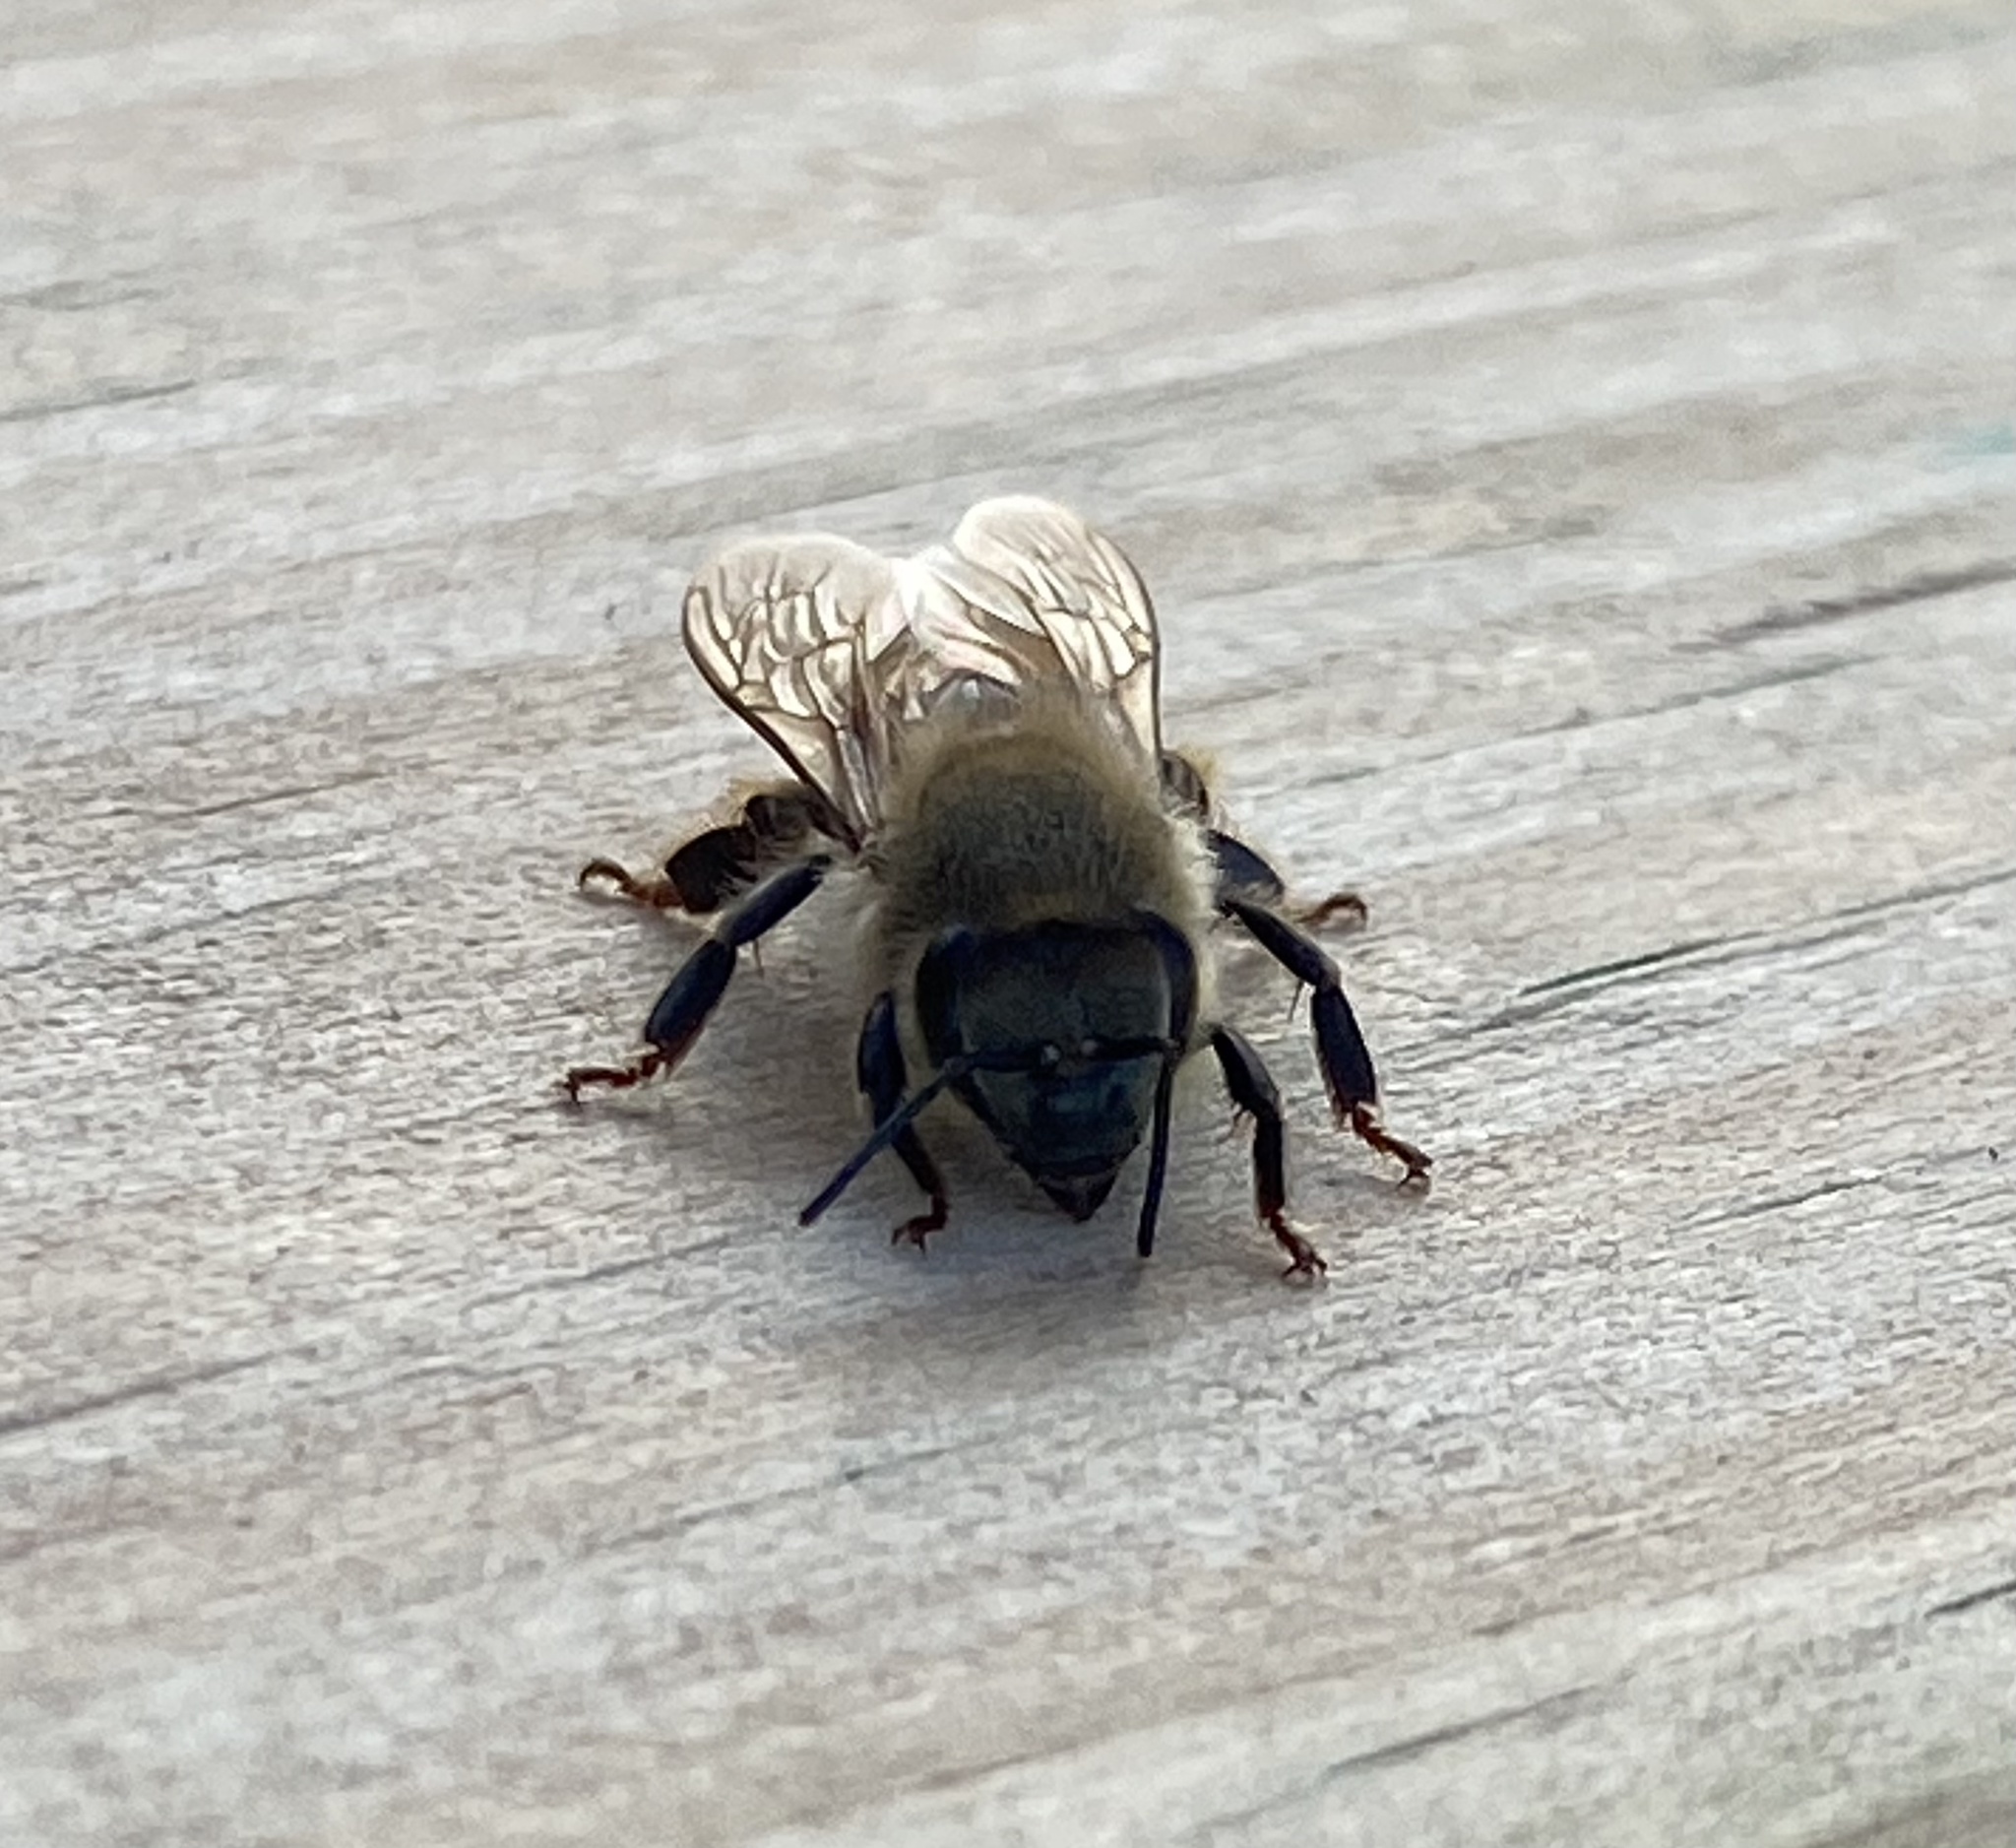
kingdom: Animalia
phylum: Arthropoda
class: Insecta
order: Hymenoptera
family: Apidae
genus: Apis
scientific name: Apis mellifera
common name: Honey bee
